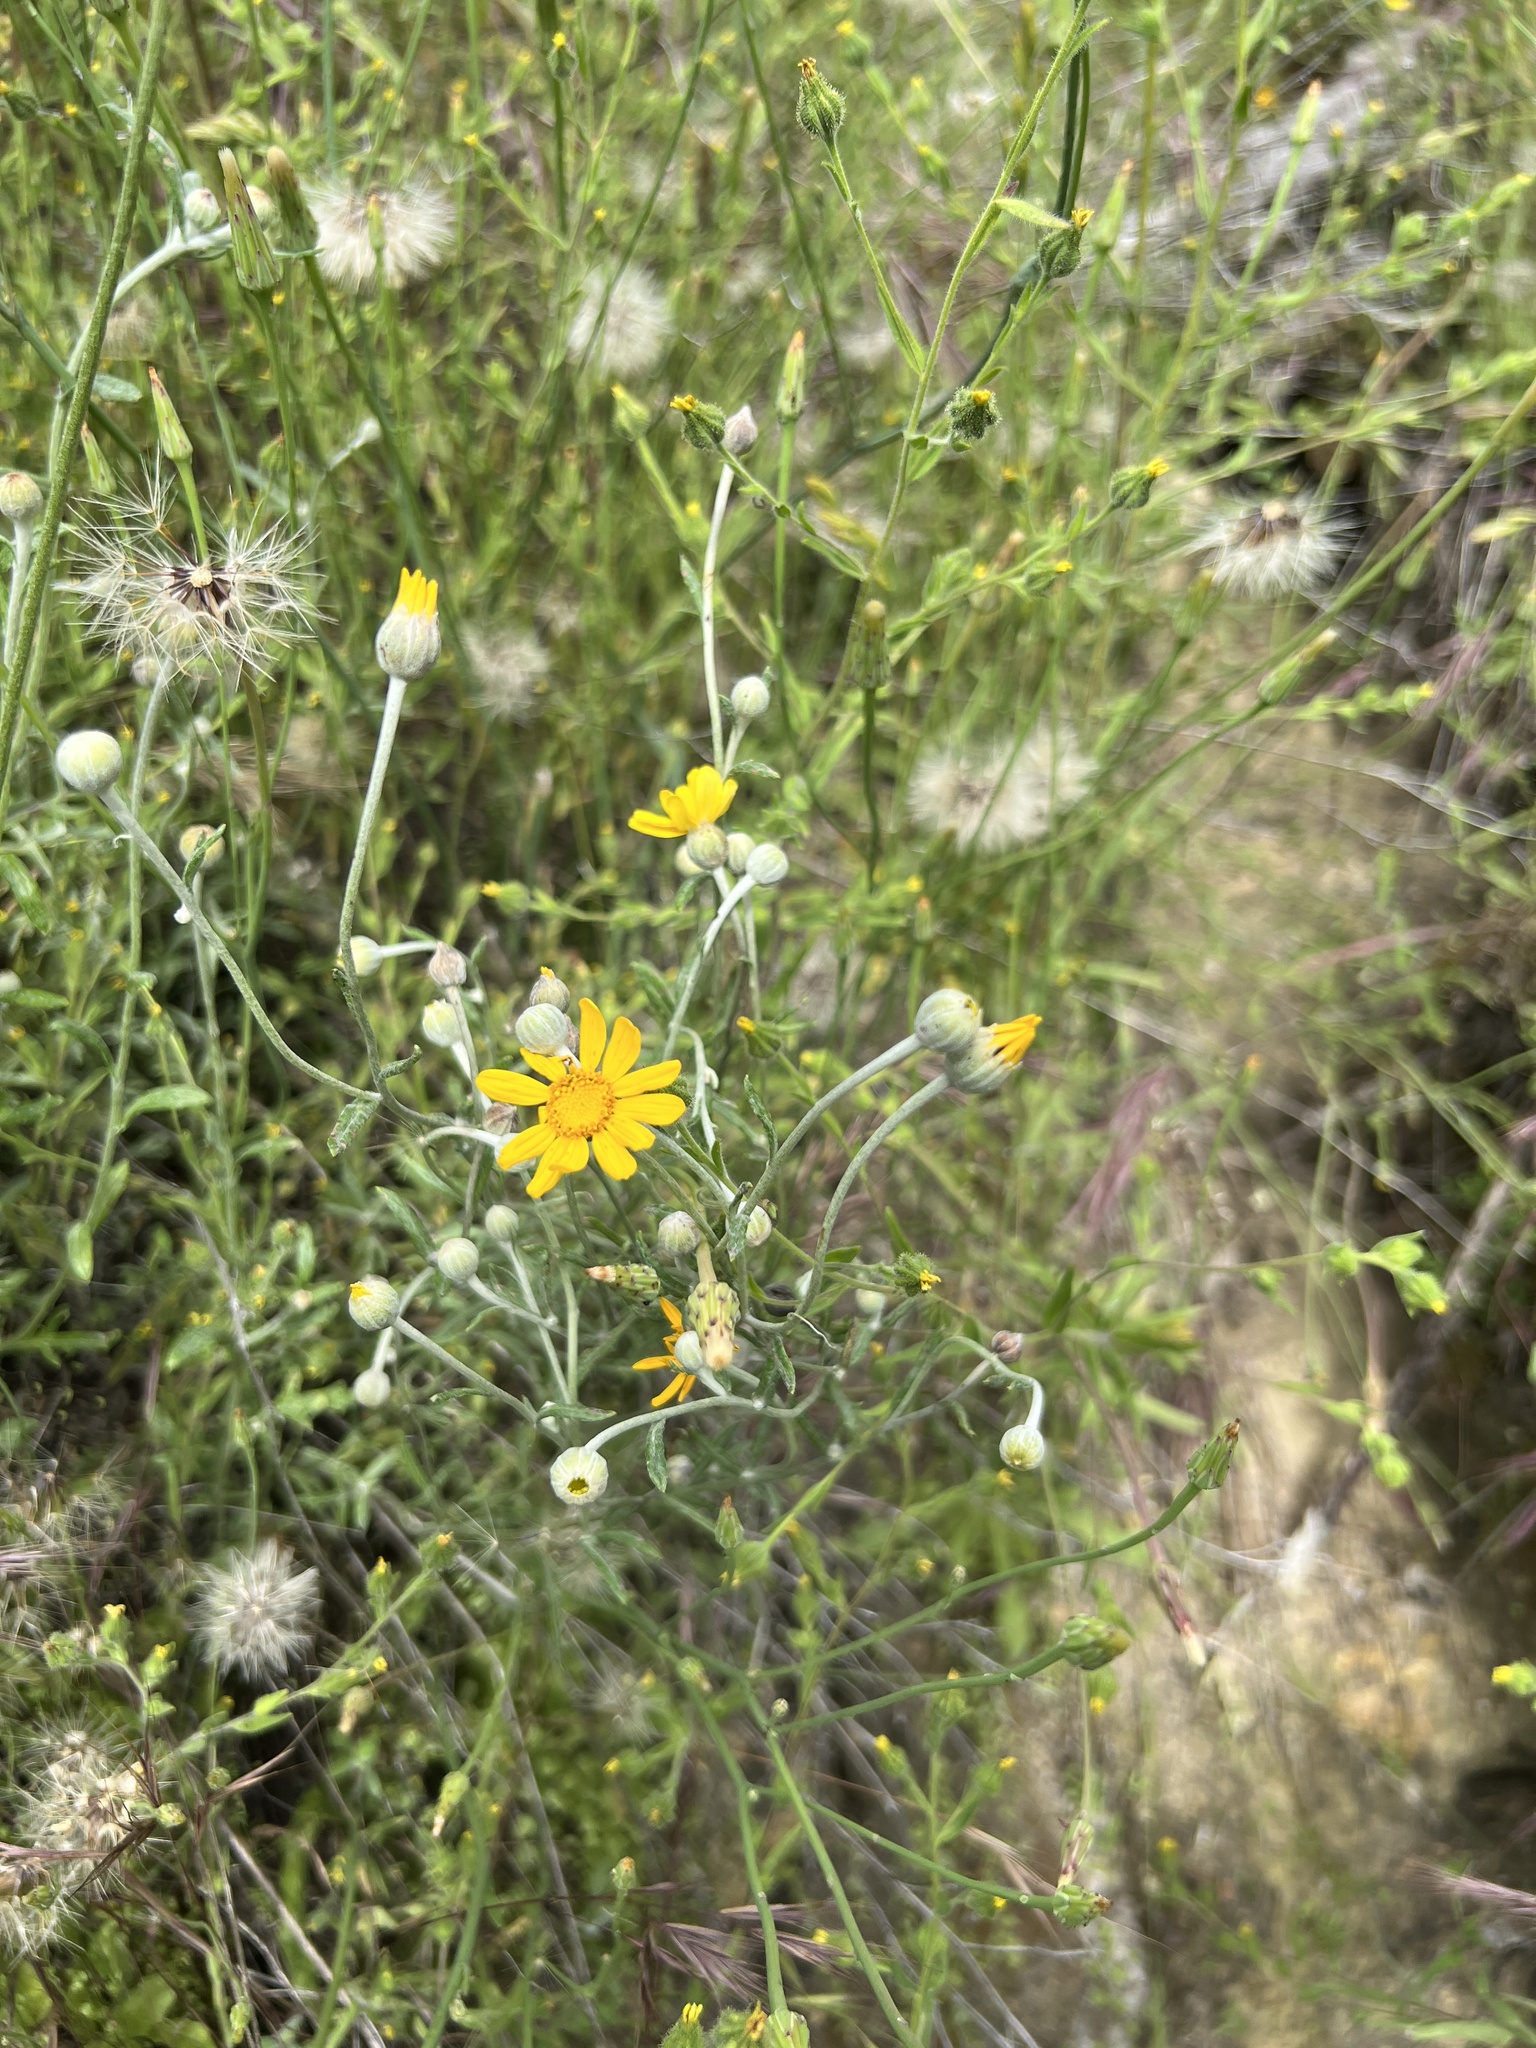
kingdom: Plantae
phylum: Tracheophyta
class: Magnoliopsida
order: Asterales
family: Asteraceae
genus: Eriophyllum
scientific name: Eriophyllum lanatum
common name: Common woolly-sunflower
